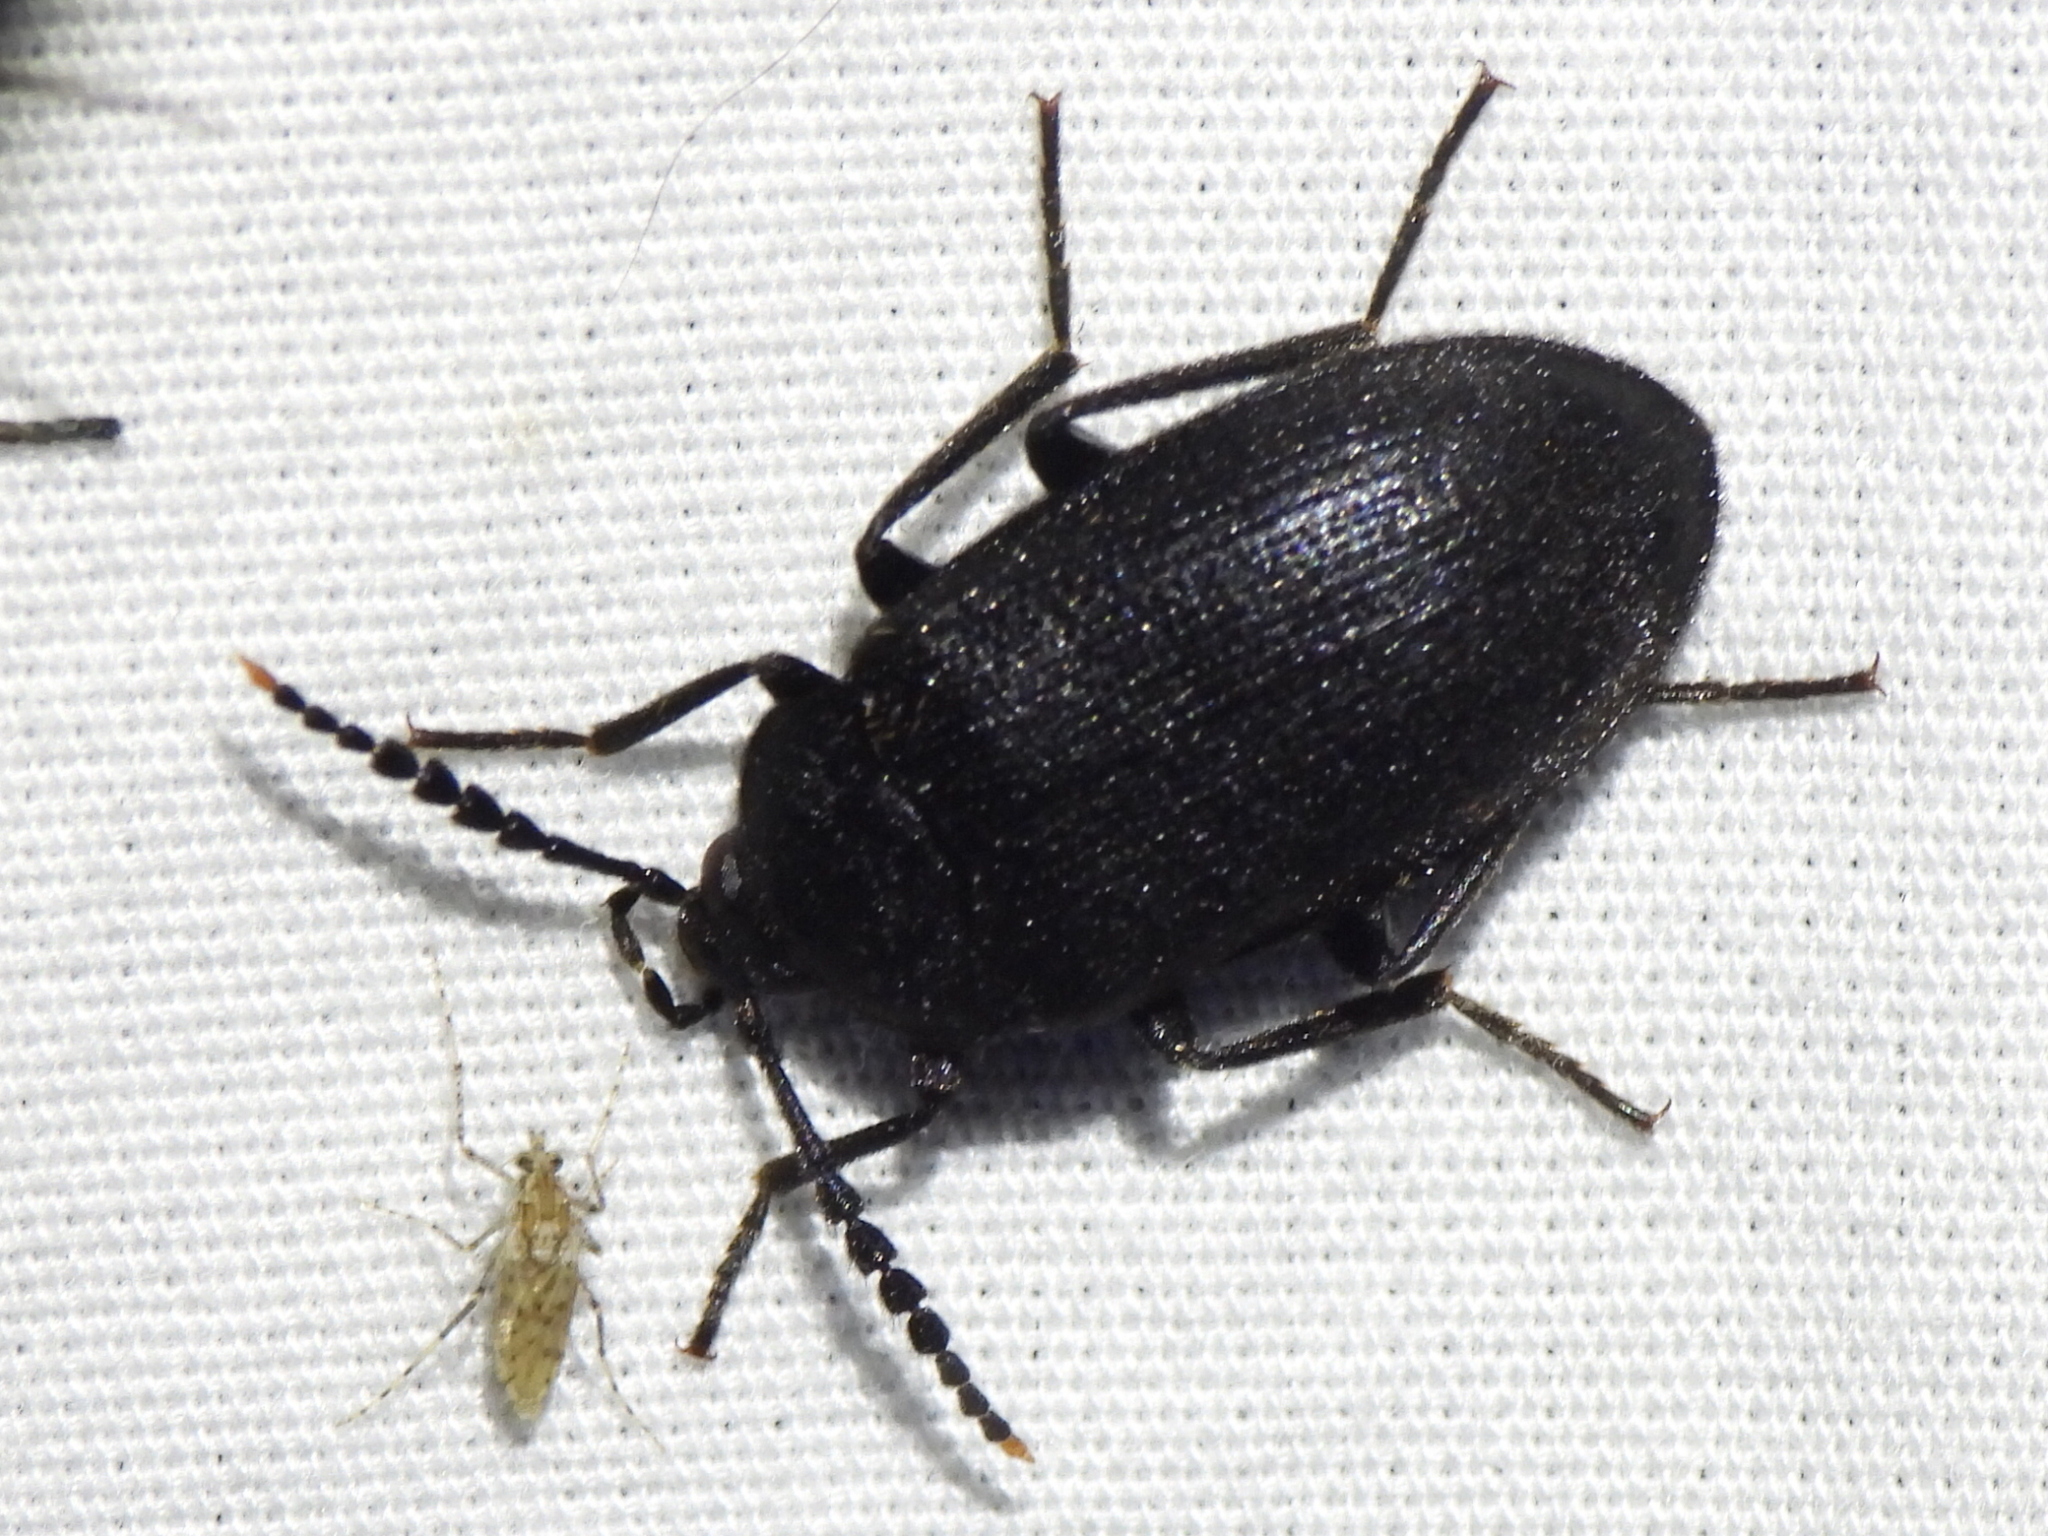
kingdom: Animalia
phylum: Arthropoda
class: Insecta
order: Coleoptera
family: Tetratomidae
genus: Penthe
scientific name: Penthe pimelia
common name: Velvety bark beetle
